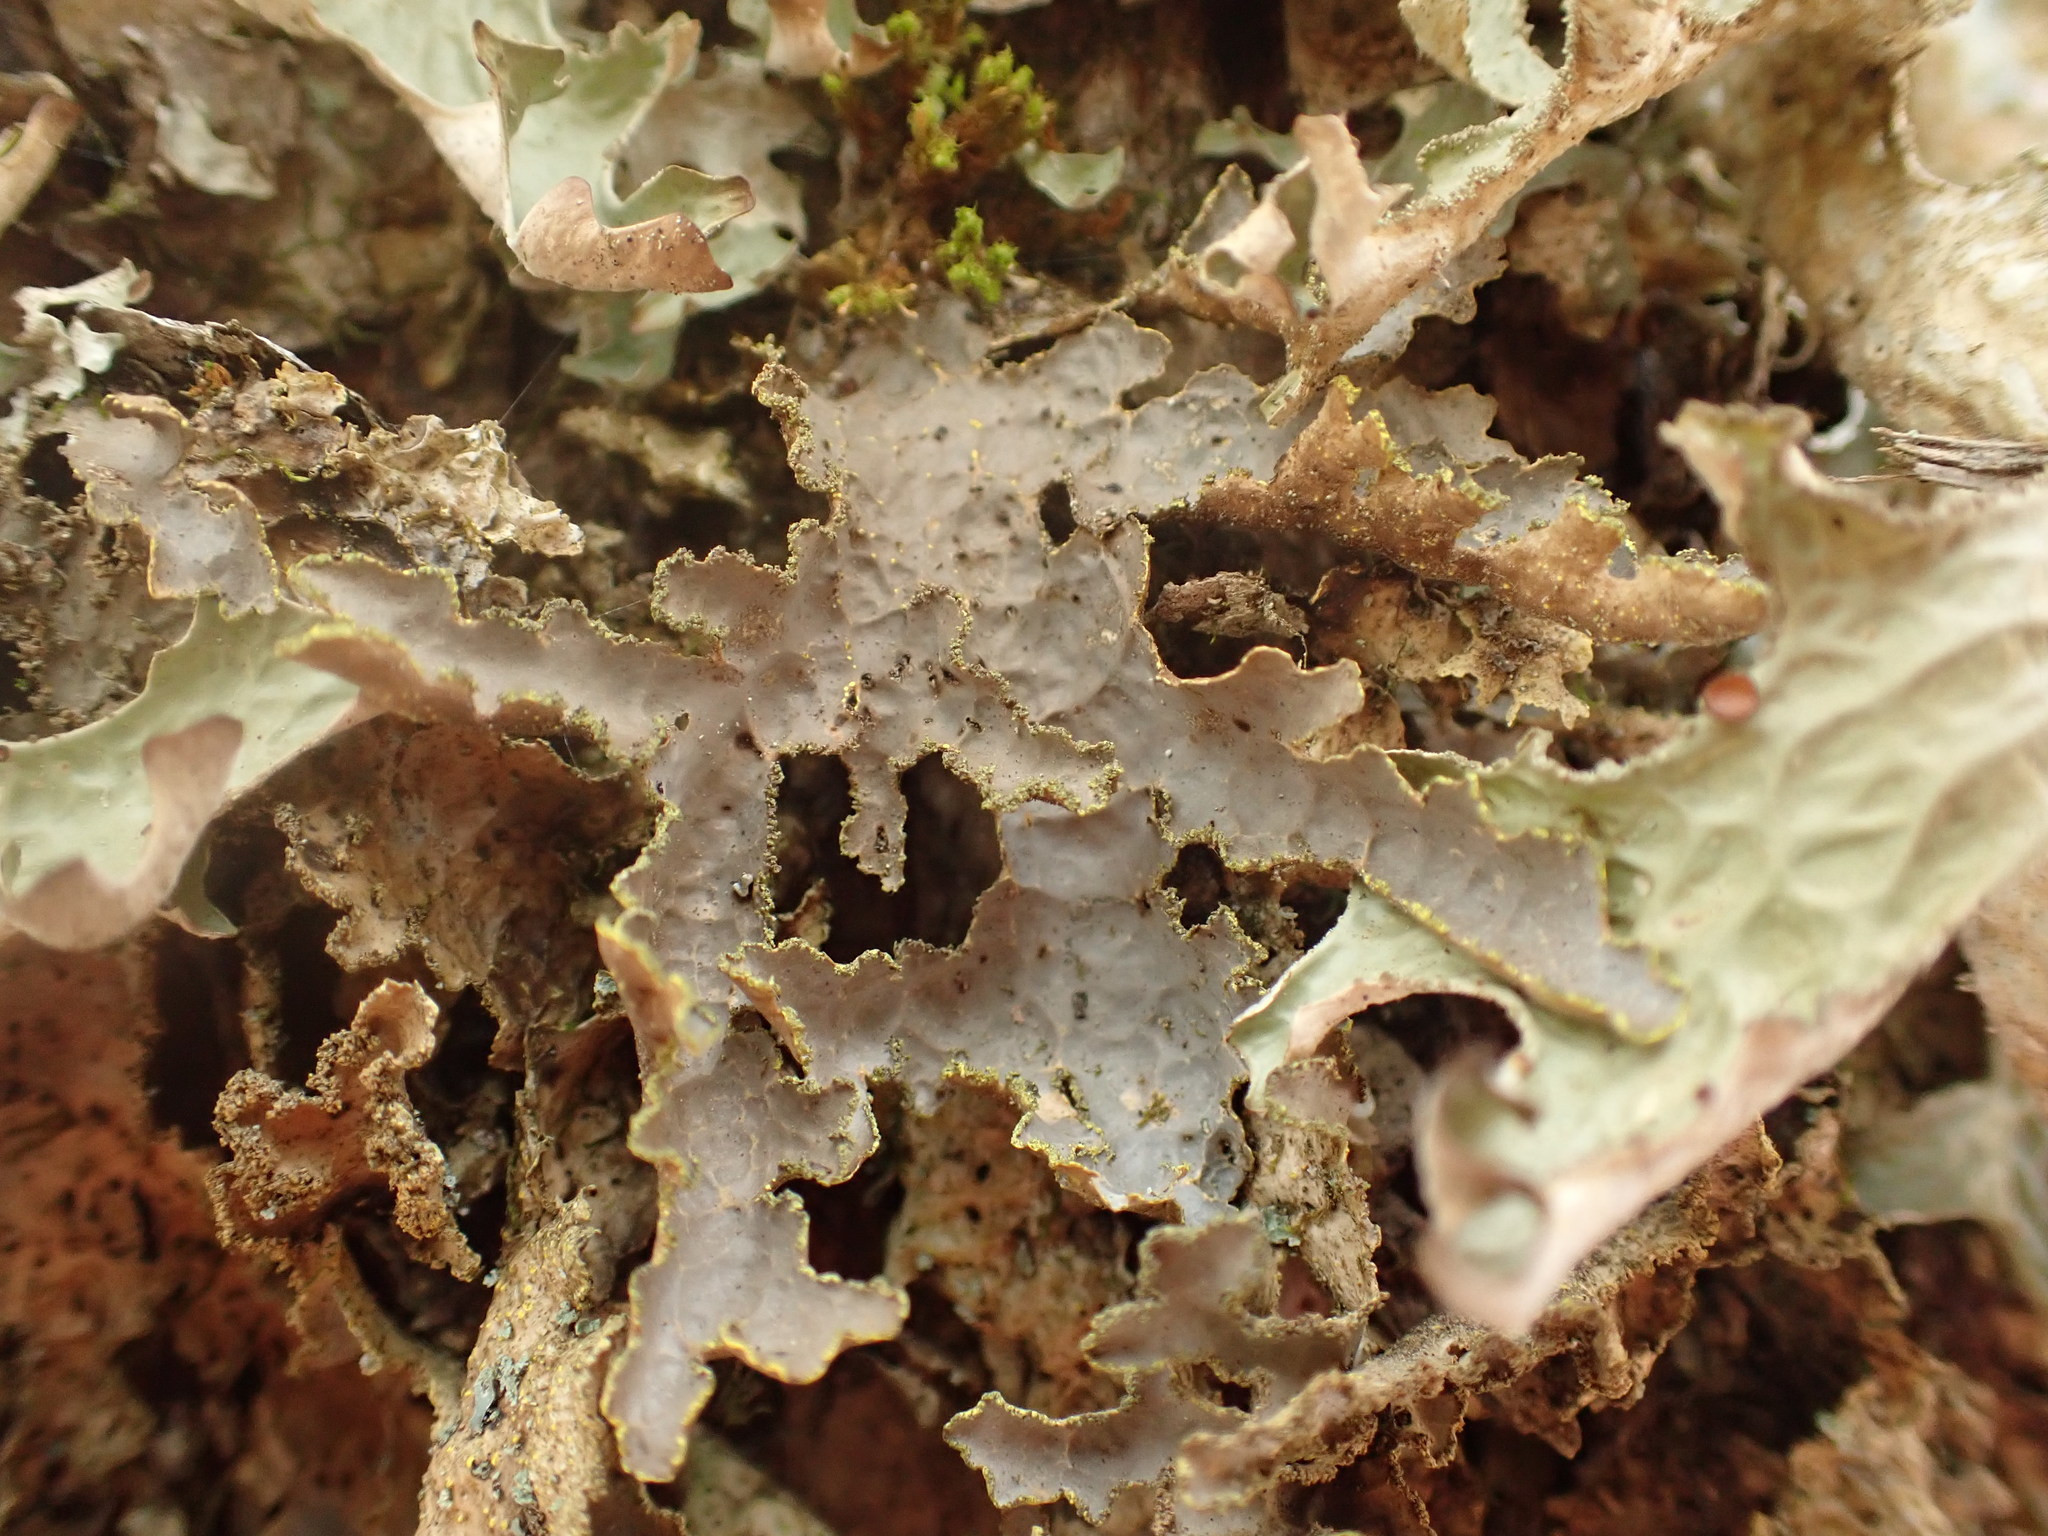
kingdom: Fungi
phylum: Ascomycota
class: Lecanoromycetes
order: Peltigerales
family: Lobariaceae
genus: Pseudocyphellaria
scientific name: Pseudocyphellaria holarctica
